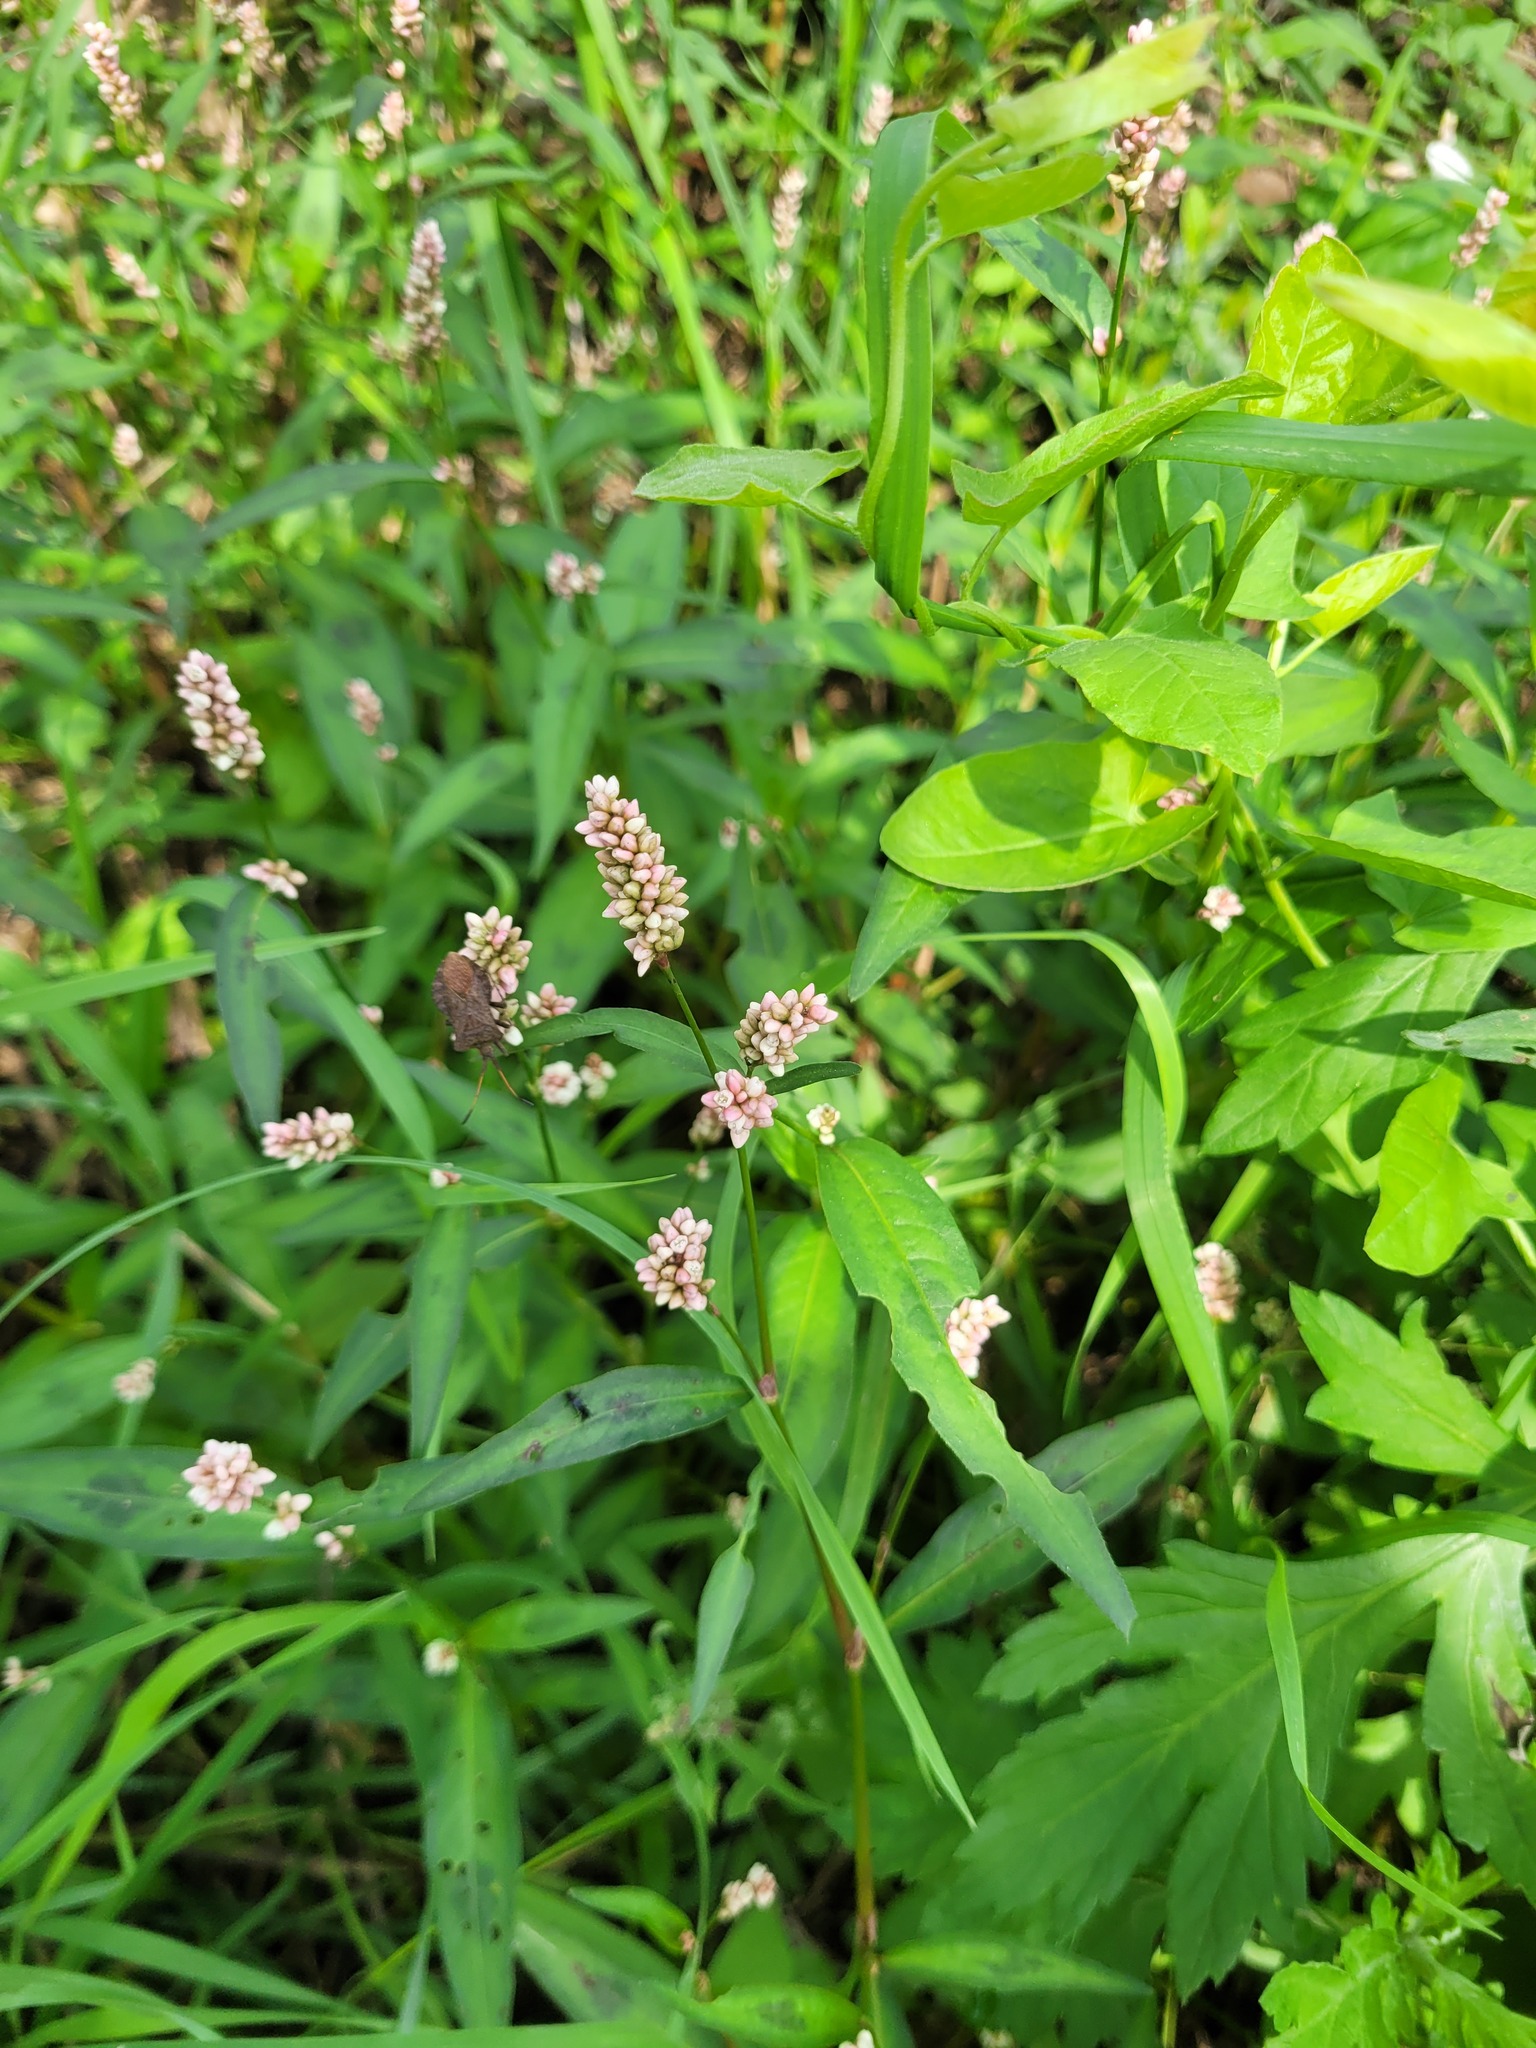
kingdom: Plantae
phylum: Tracheophyta
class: Magnoliopsida
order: Caryophyllales
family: Polygonaceae
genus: Persicaria
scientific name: Persicaria maculosa
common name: Redshank
